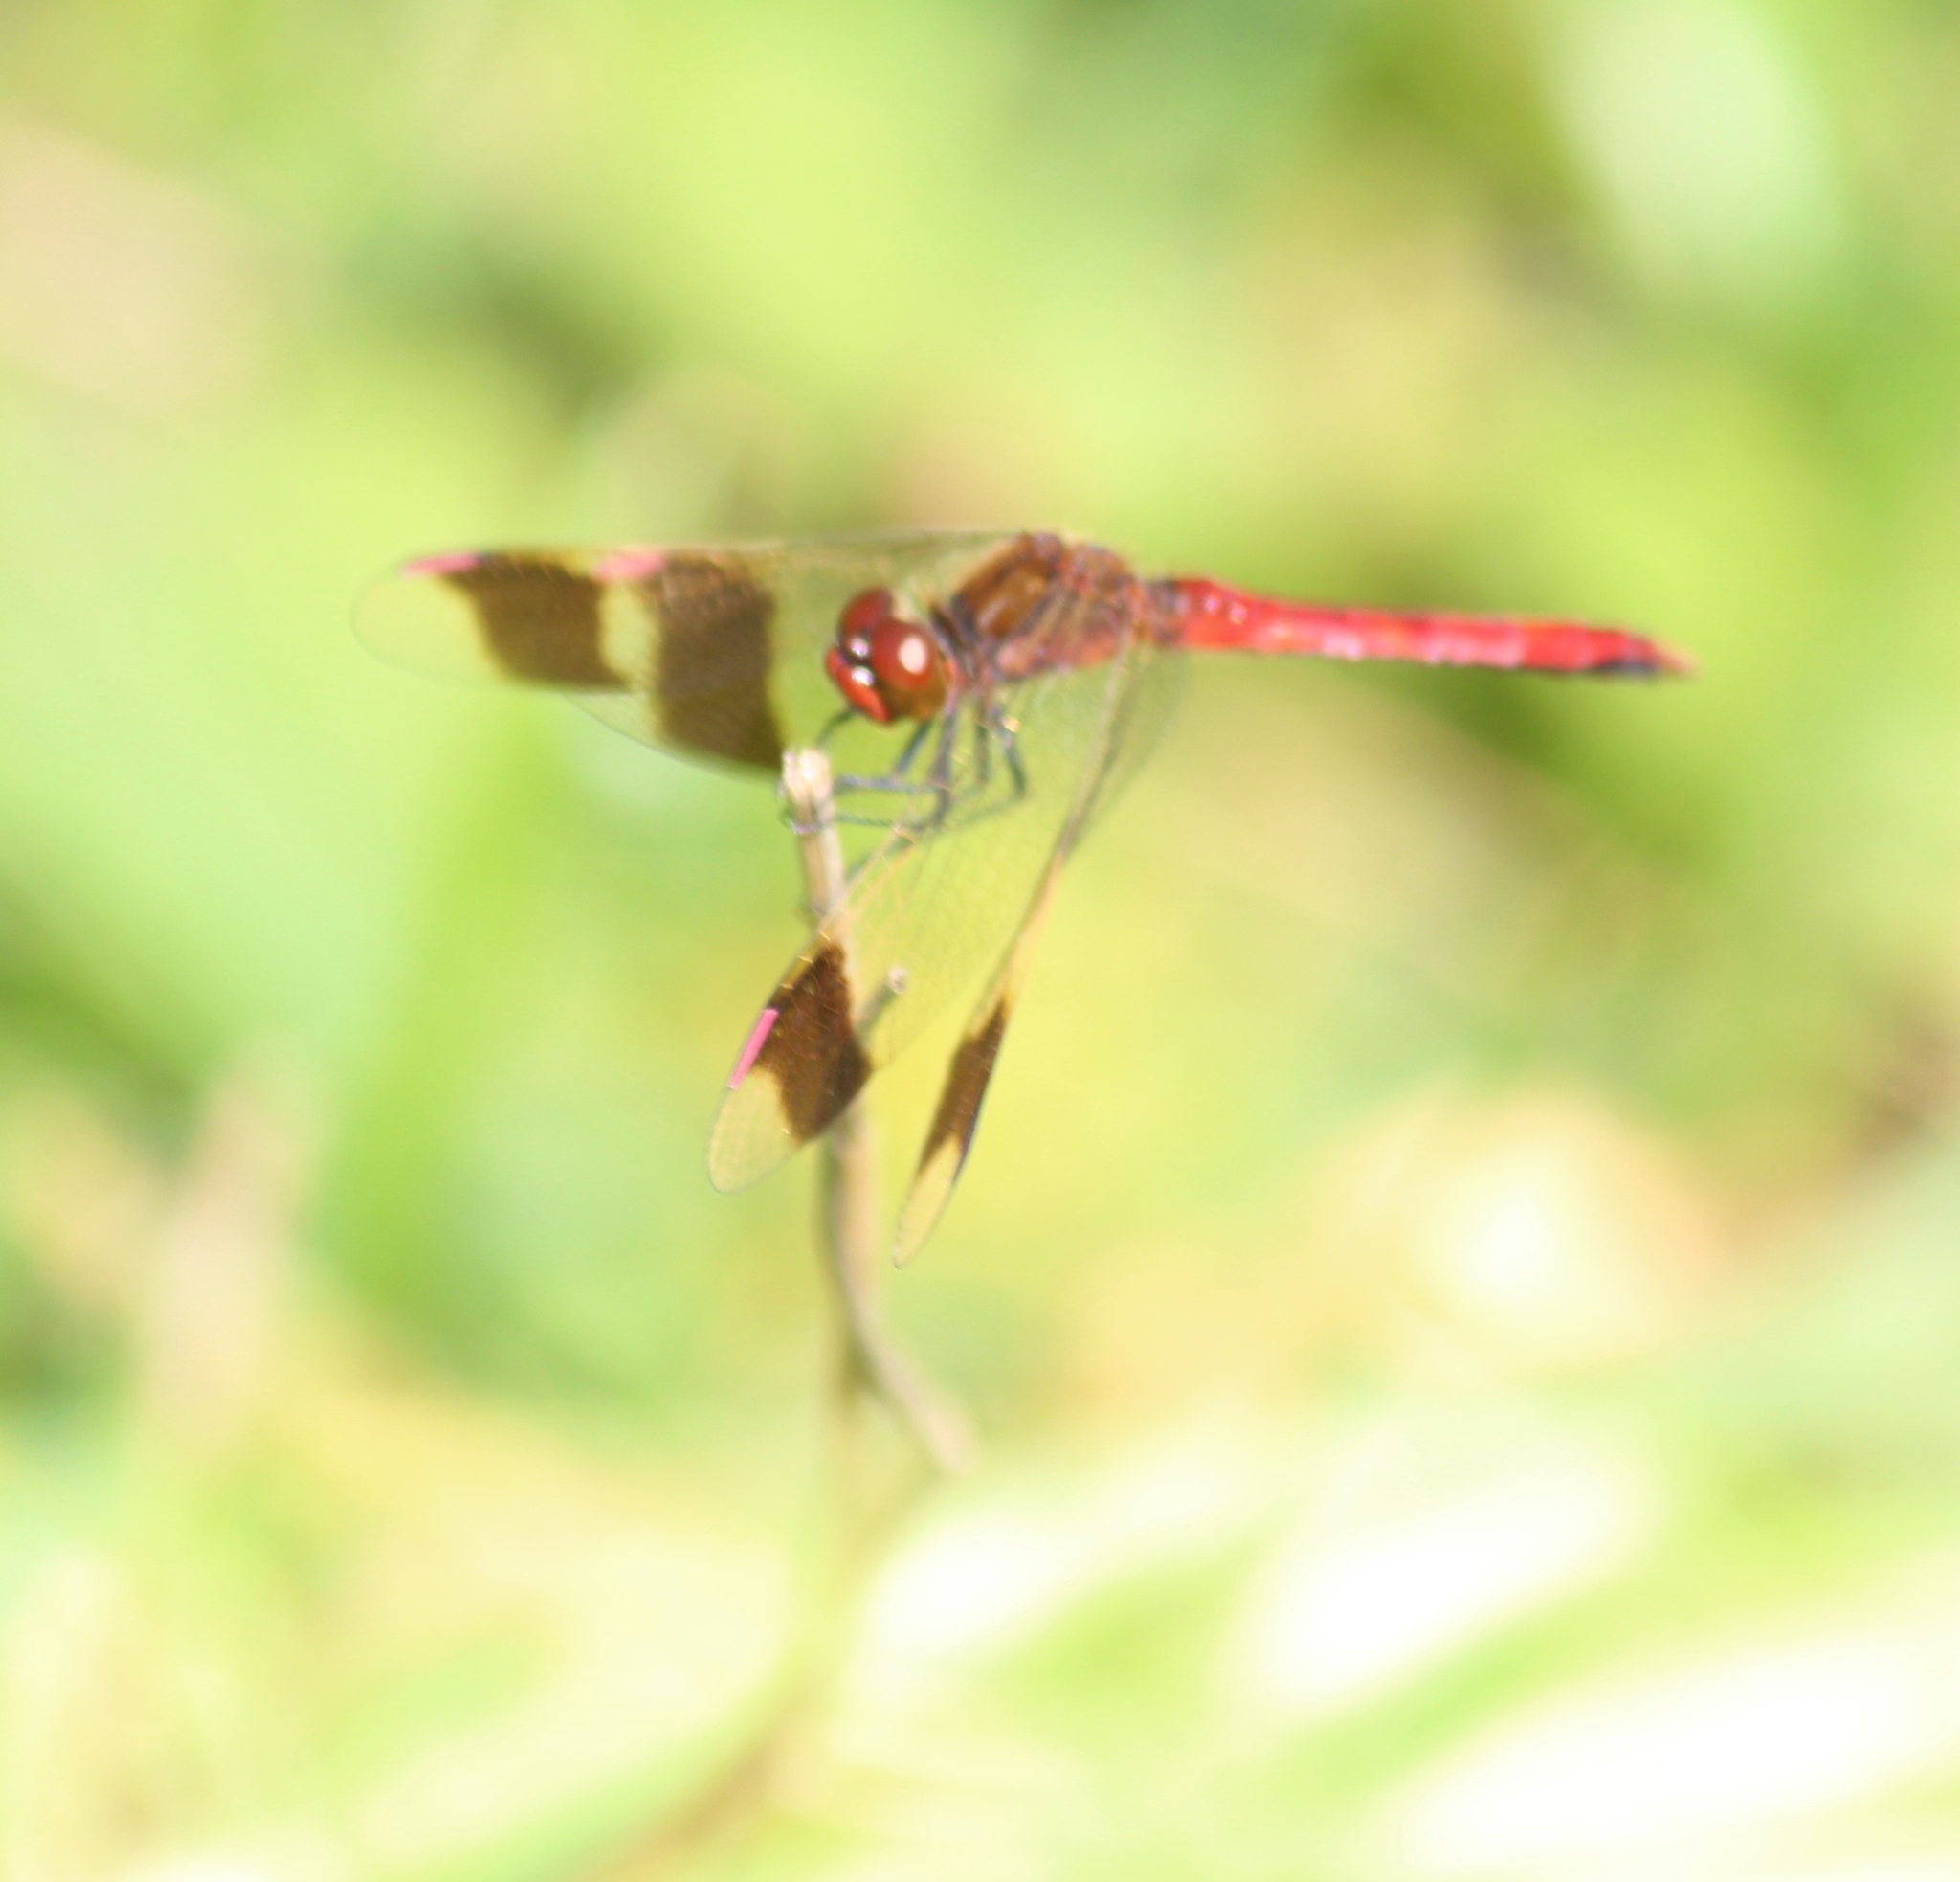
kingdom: Animalia
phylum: Arthropoda
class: Insecta
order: Odonata
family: Libellulidae
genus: Sympetrum
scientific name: Sympetrum pedemontanum
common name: Banded darter
